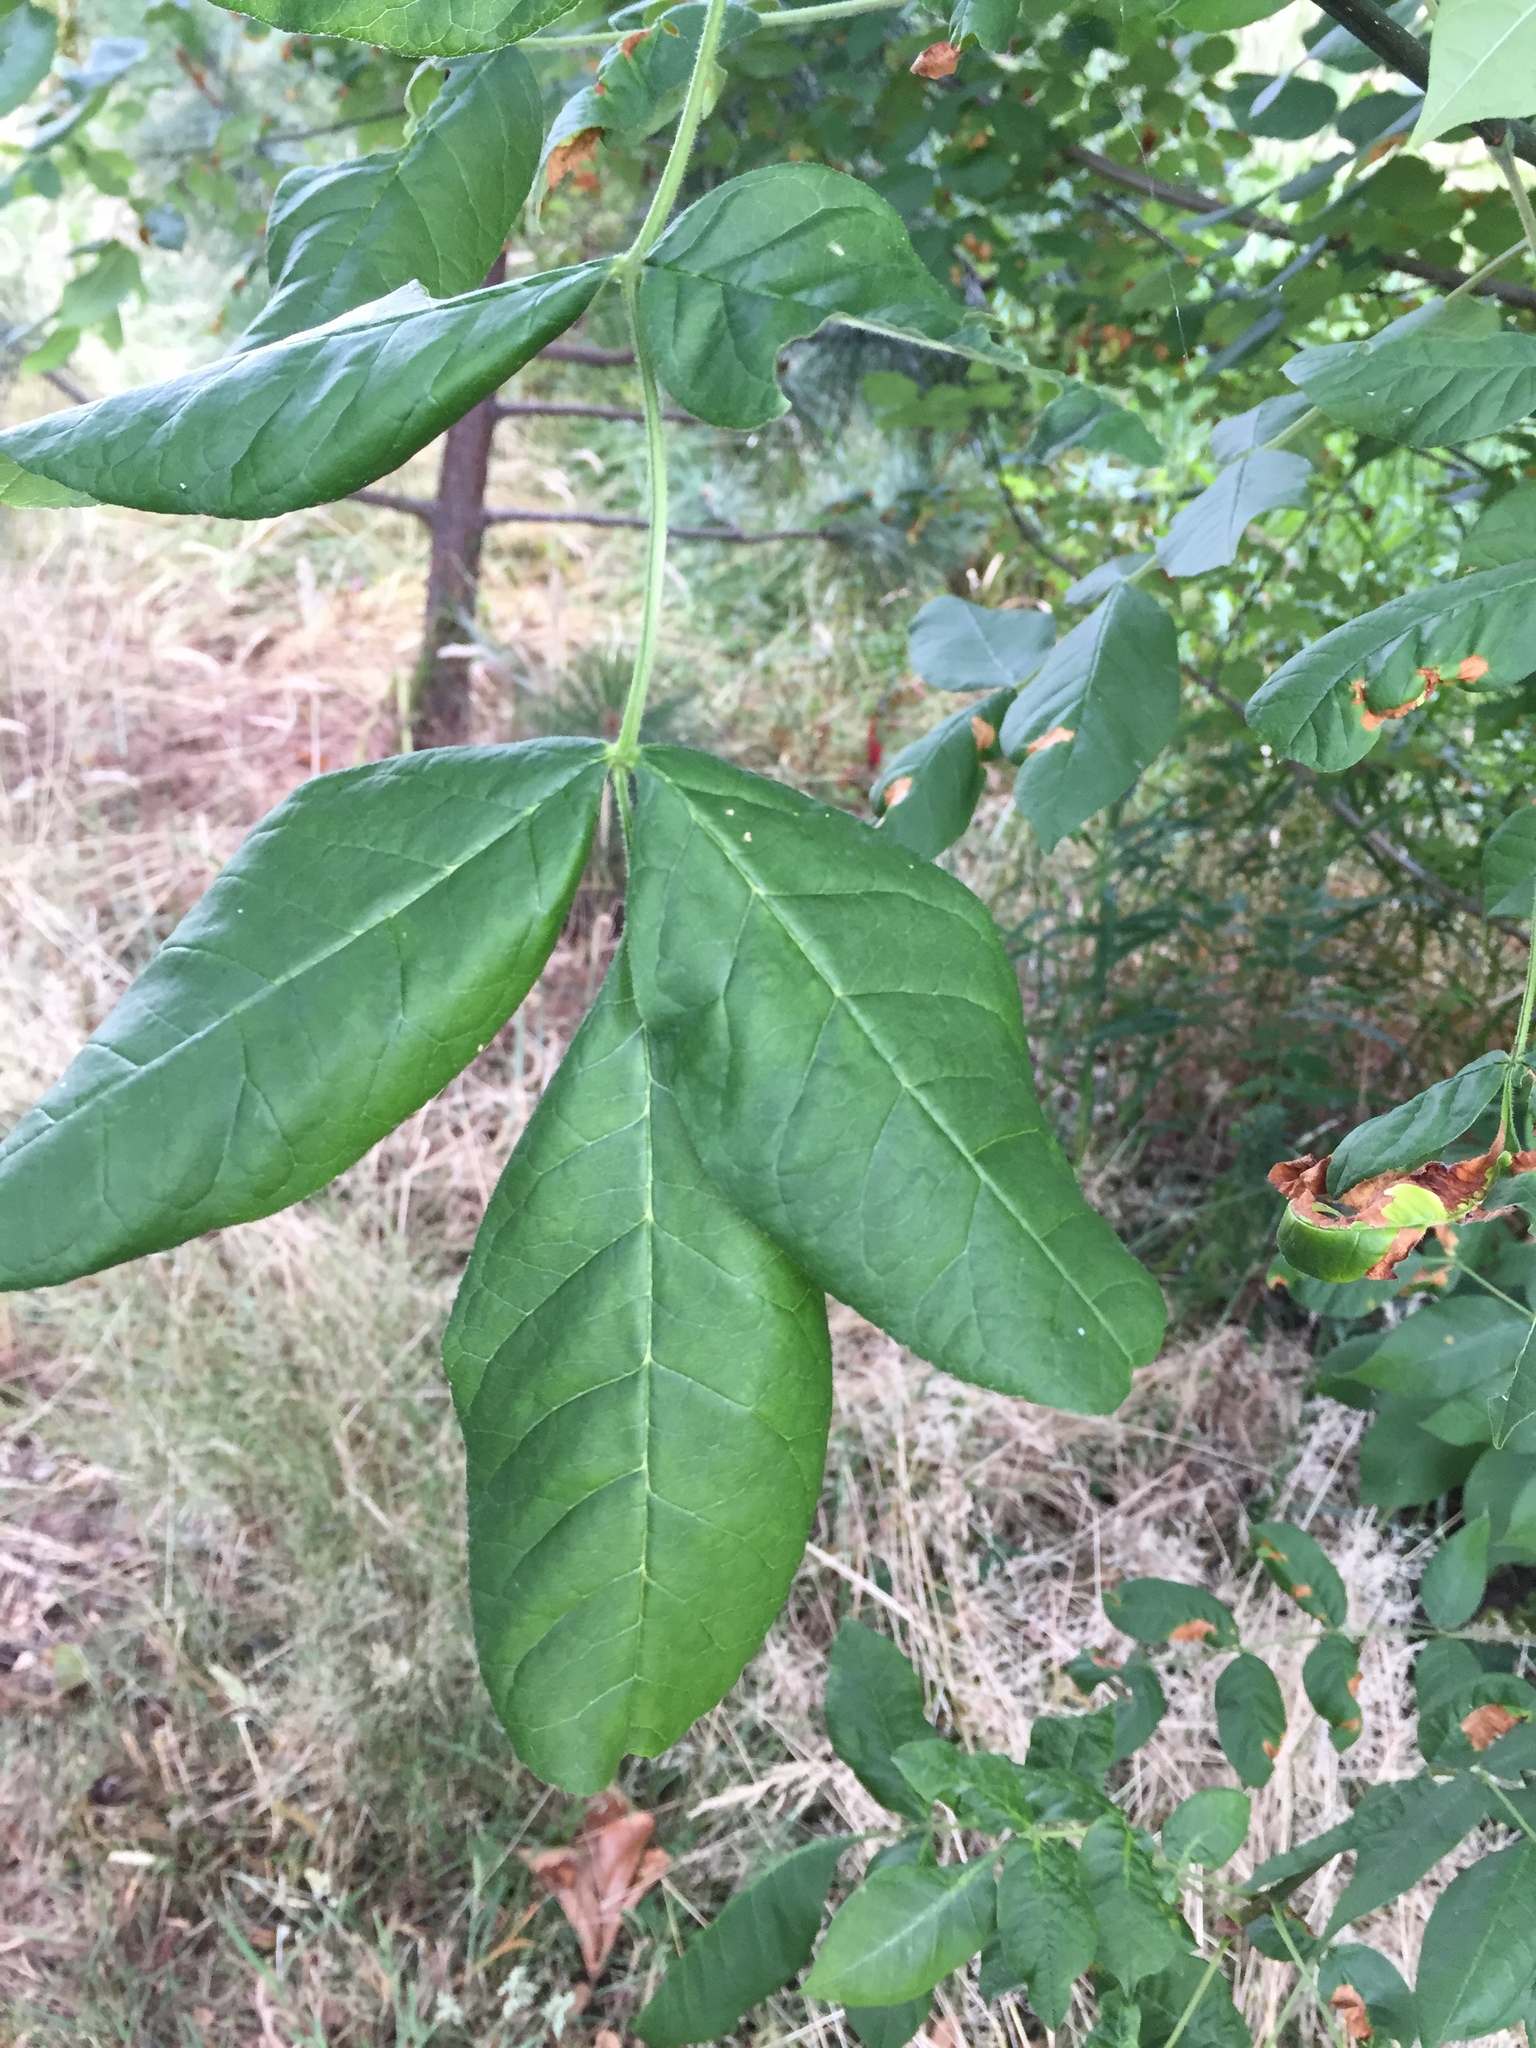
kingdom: Plantae
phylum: Tracheophyta
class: Magnoliopsida
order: Lamiales
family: Oleaceae
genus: Fraxinus
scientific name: Fraxinus latifolia
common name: Oregon ash
